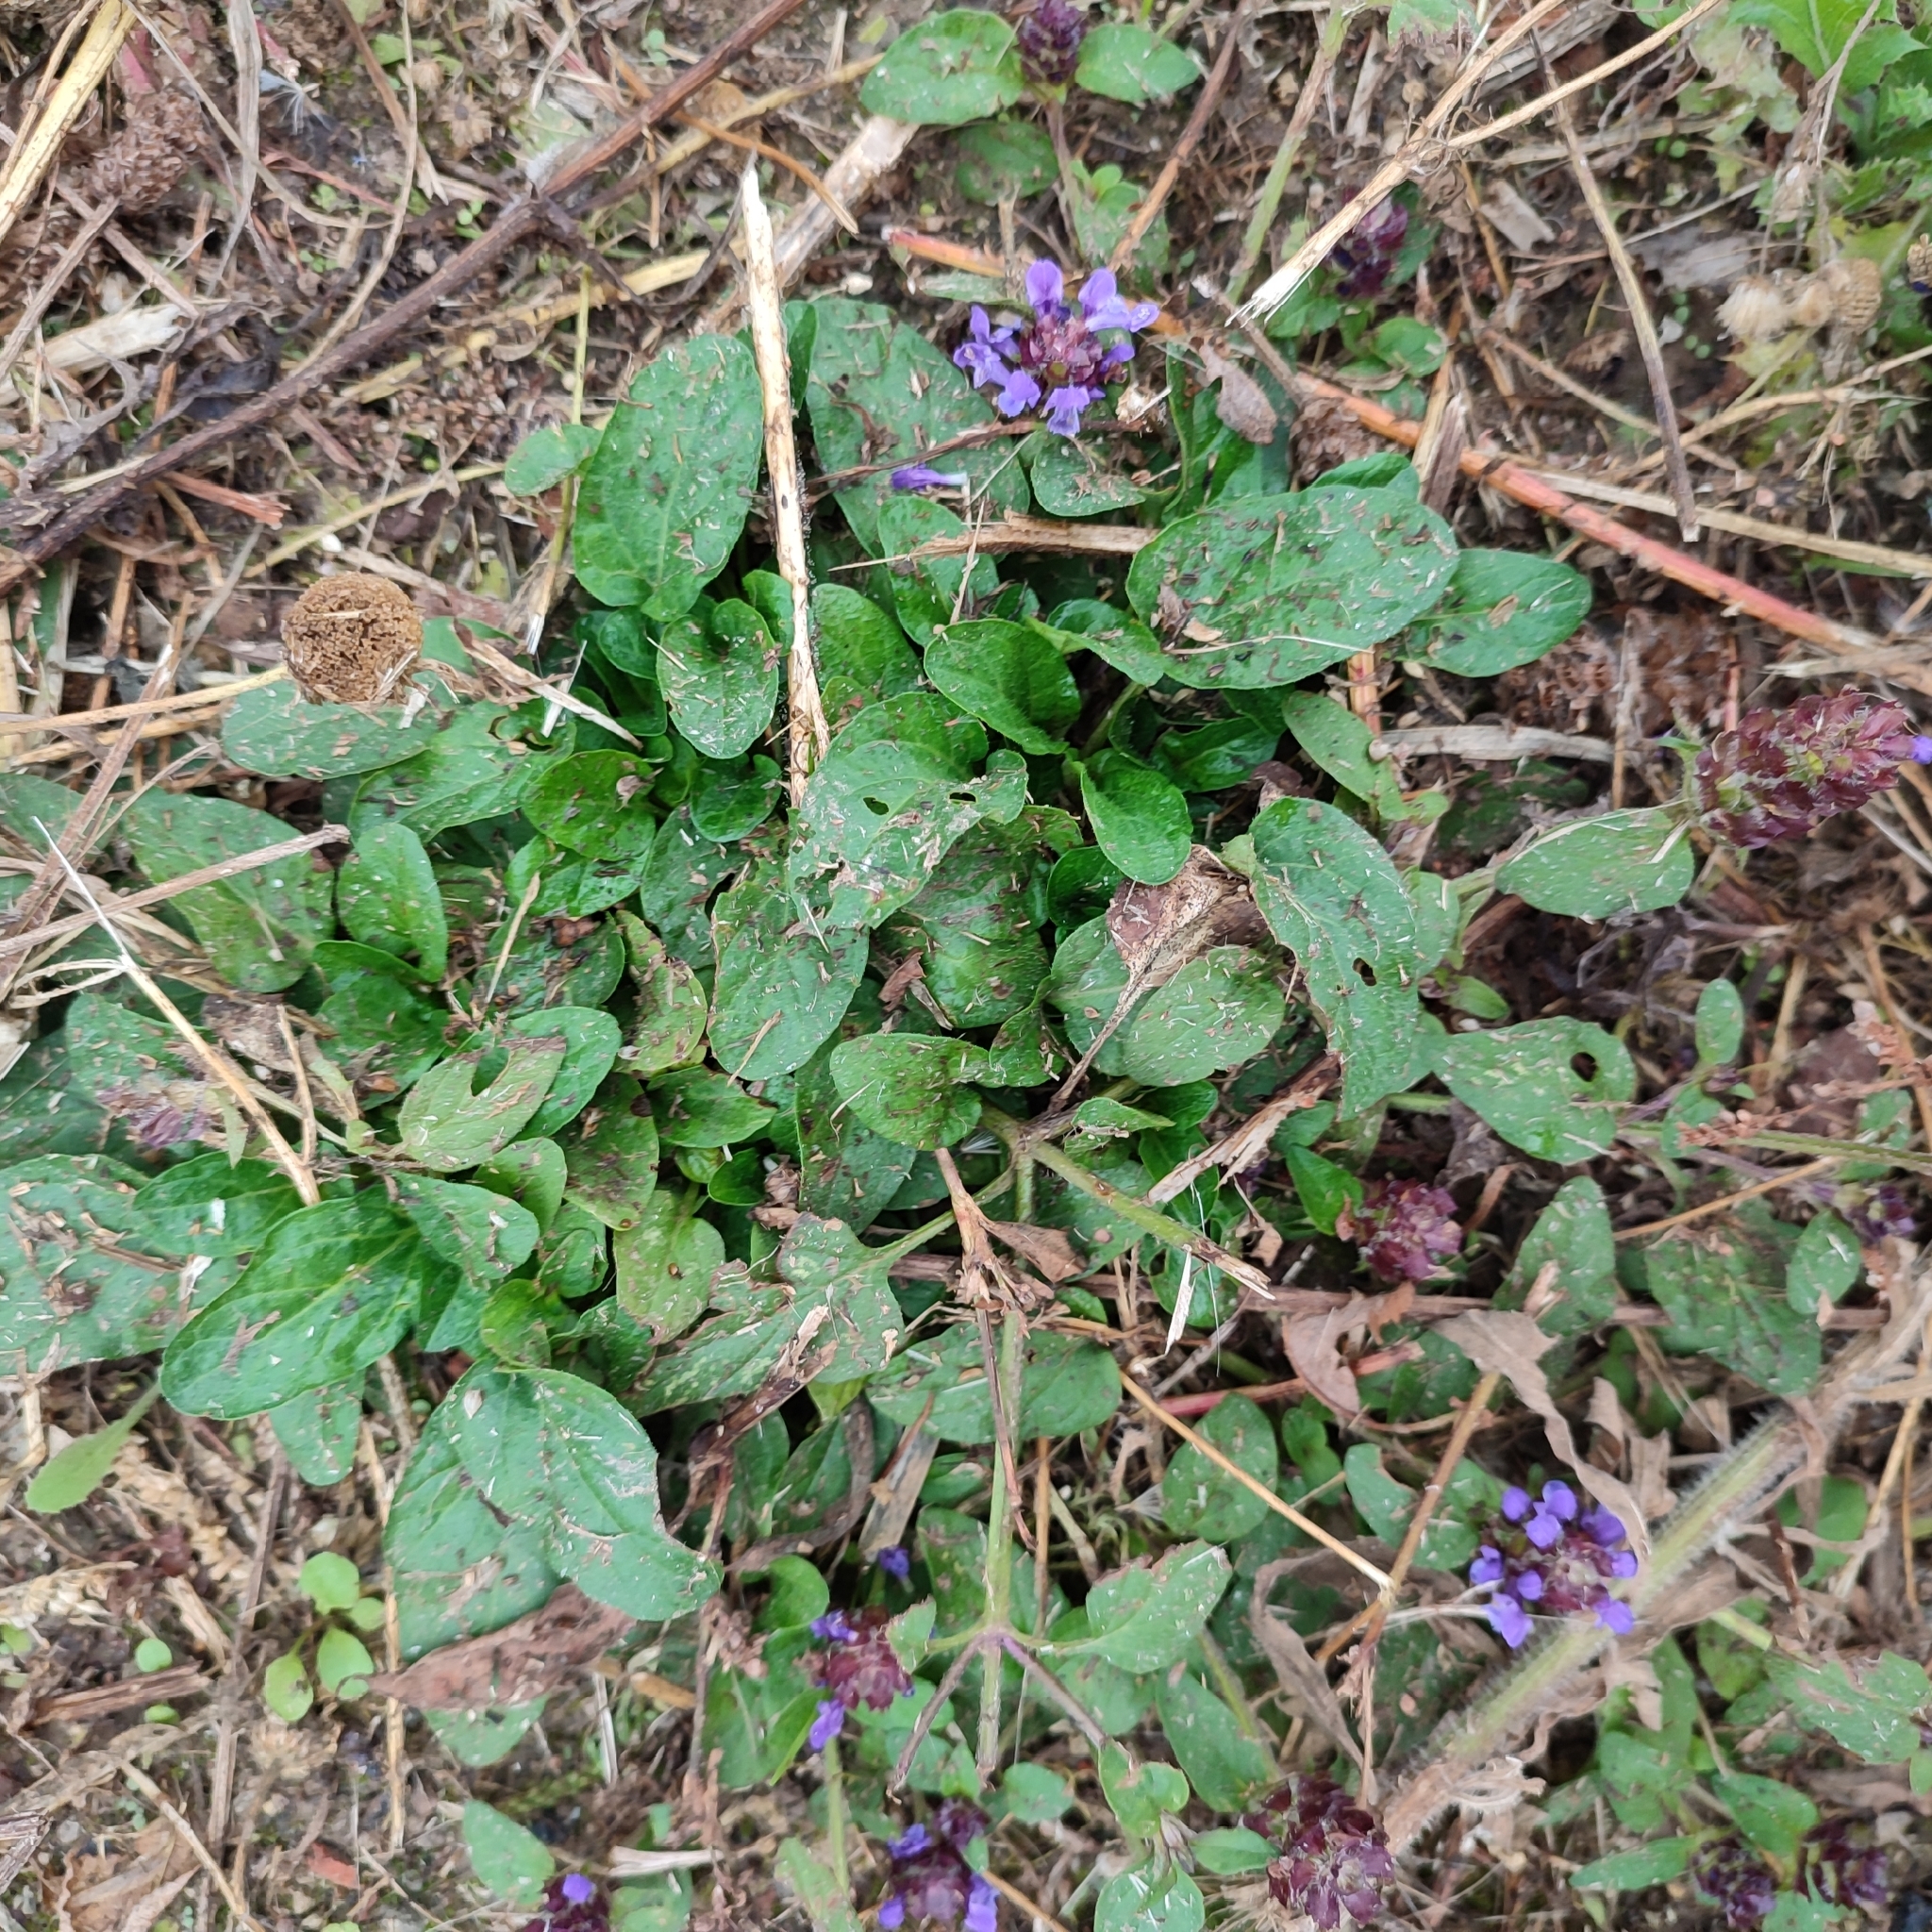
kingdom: Plantae
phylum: Tracheophyta
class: Magnoliopsida
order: Lamiales
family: Lamiaceae
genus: Prunella
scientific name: Prunella vulgaris
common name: Heal-all
